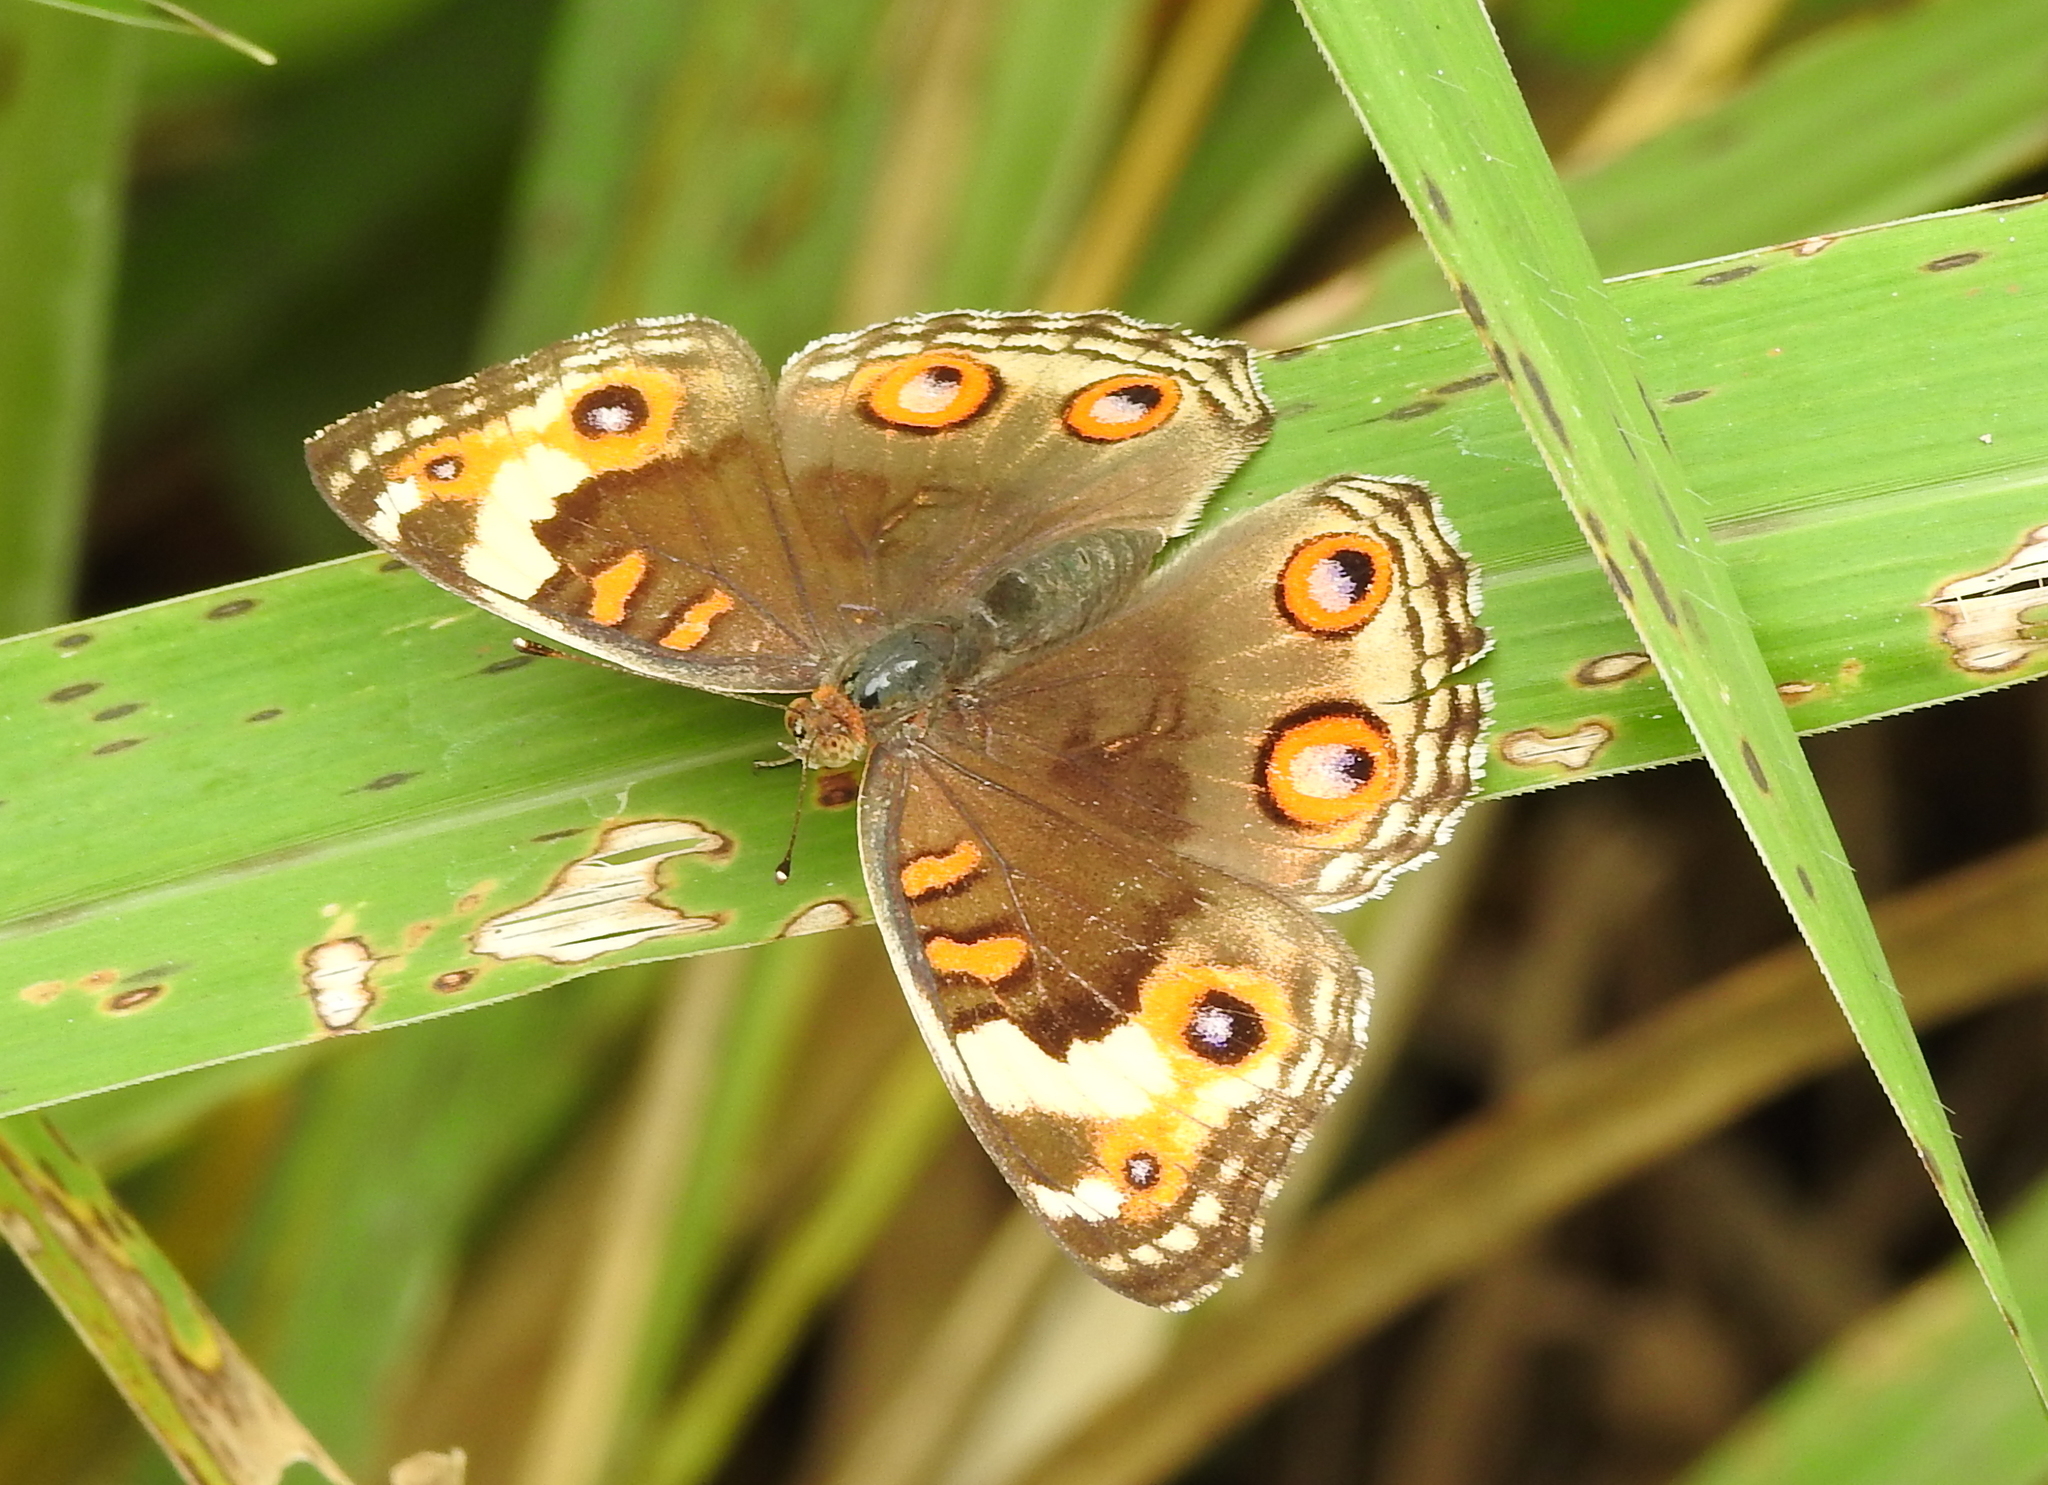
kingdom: Animalia
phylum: Arthropoda
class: Insecta
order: Lepidoptera
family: Nymphalidae
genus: Junonia
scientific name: Junonia orithya
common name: Blue pansy
